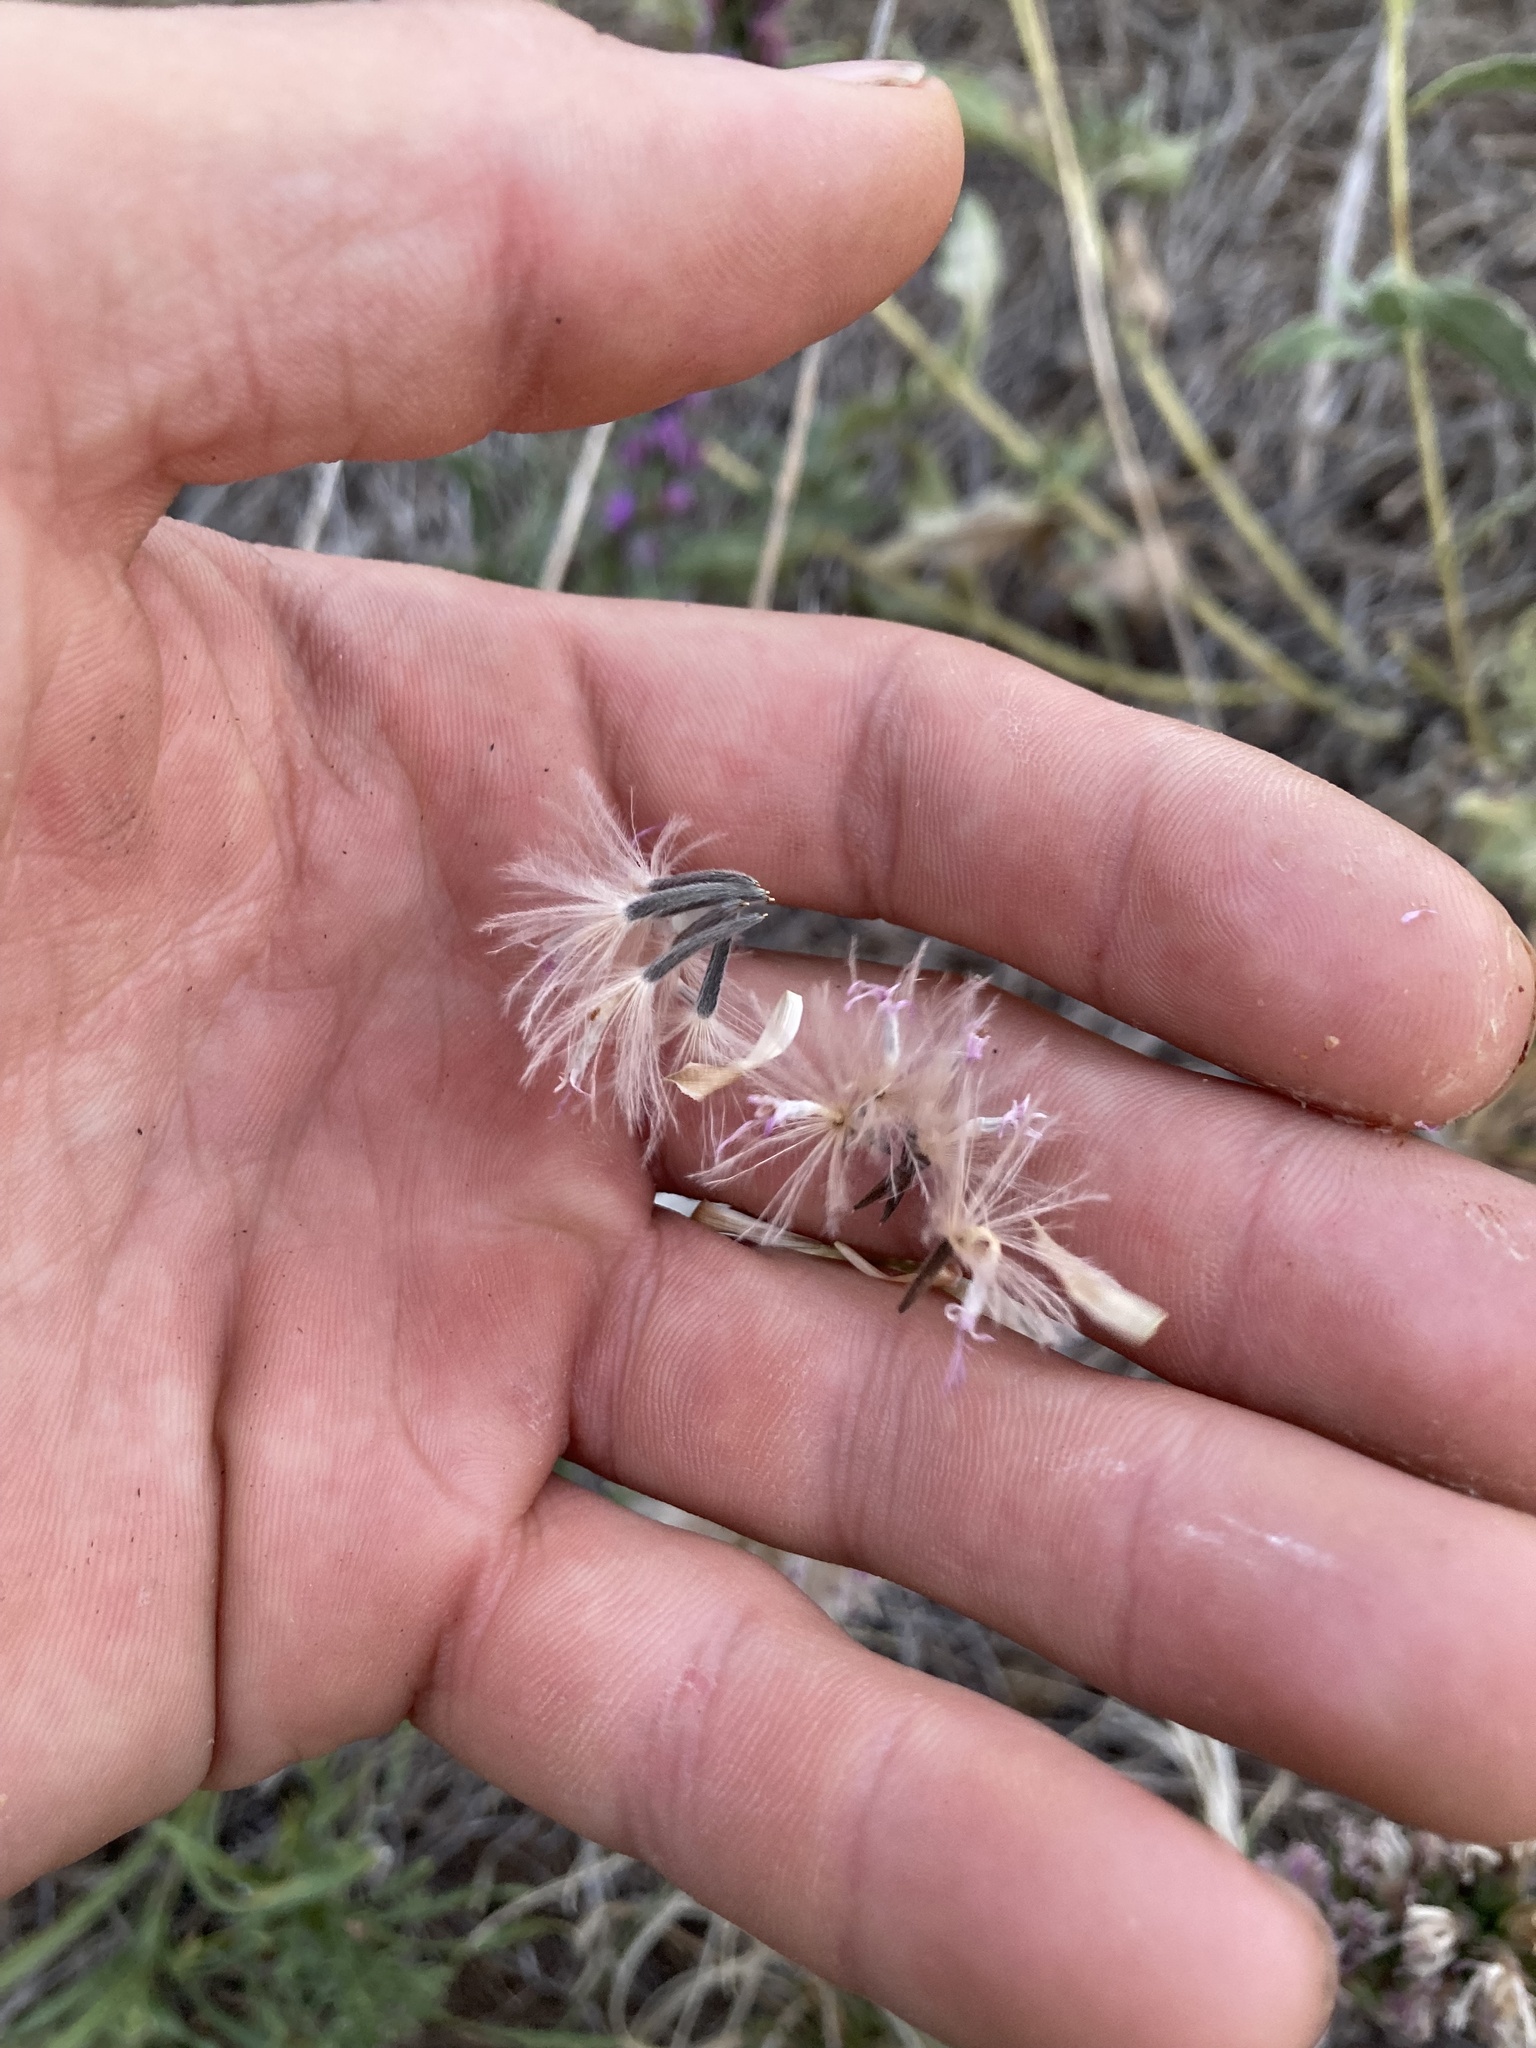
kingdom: Plantae
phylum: Tracheophyta
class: Magnoliopsida
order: Asterales
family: Asteraceae
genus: Liatris
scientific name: Liatris punctata
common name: Dotted gayfeather
